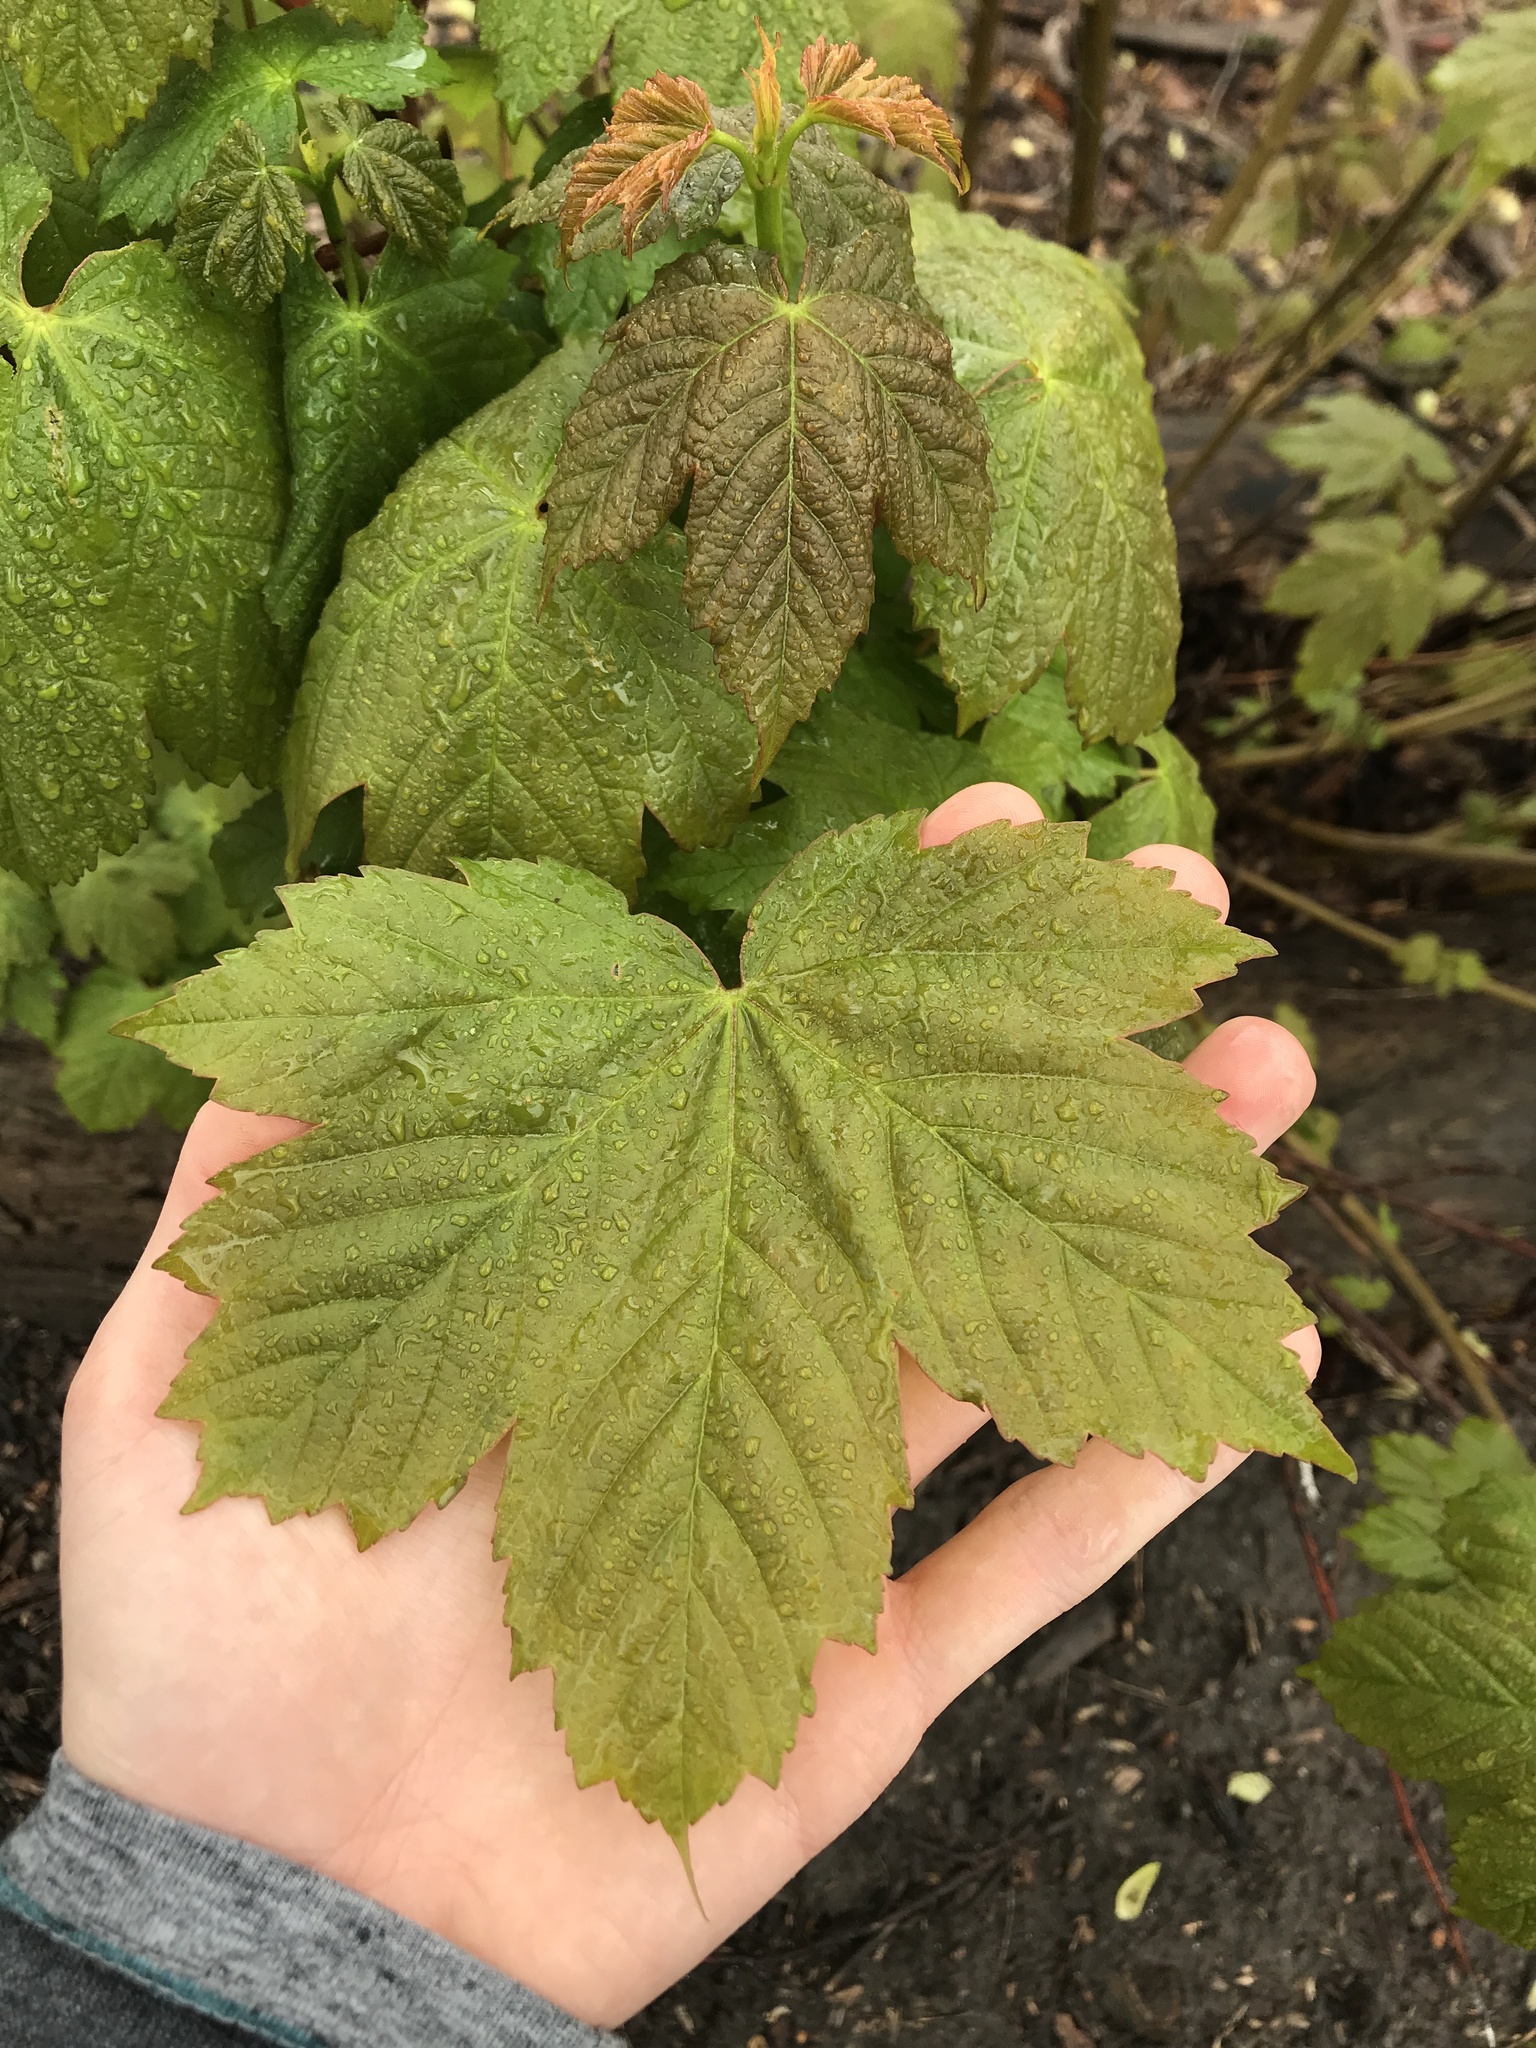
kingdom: Plantae
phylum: Tracheophyta
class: Magnoliopsida
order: Sapindales
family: Sapindaceae
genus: Acer
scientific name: Acer pseudoplatanus
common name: Sycamore
